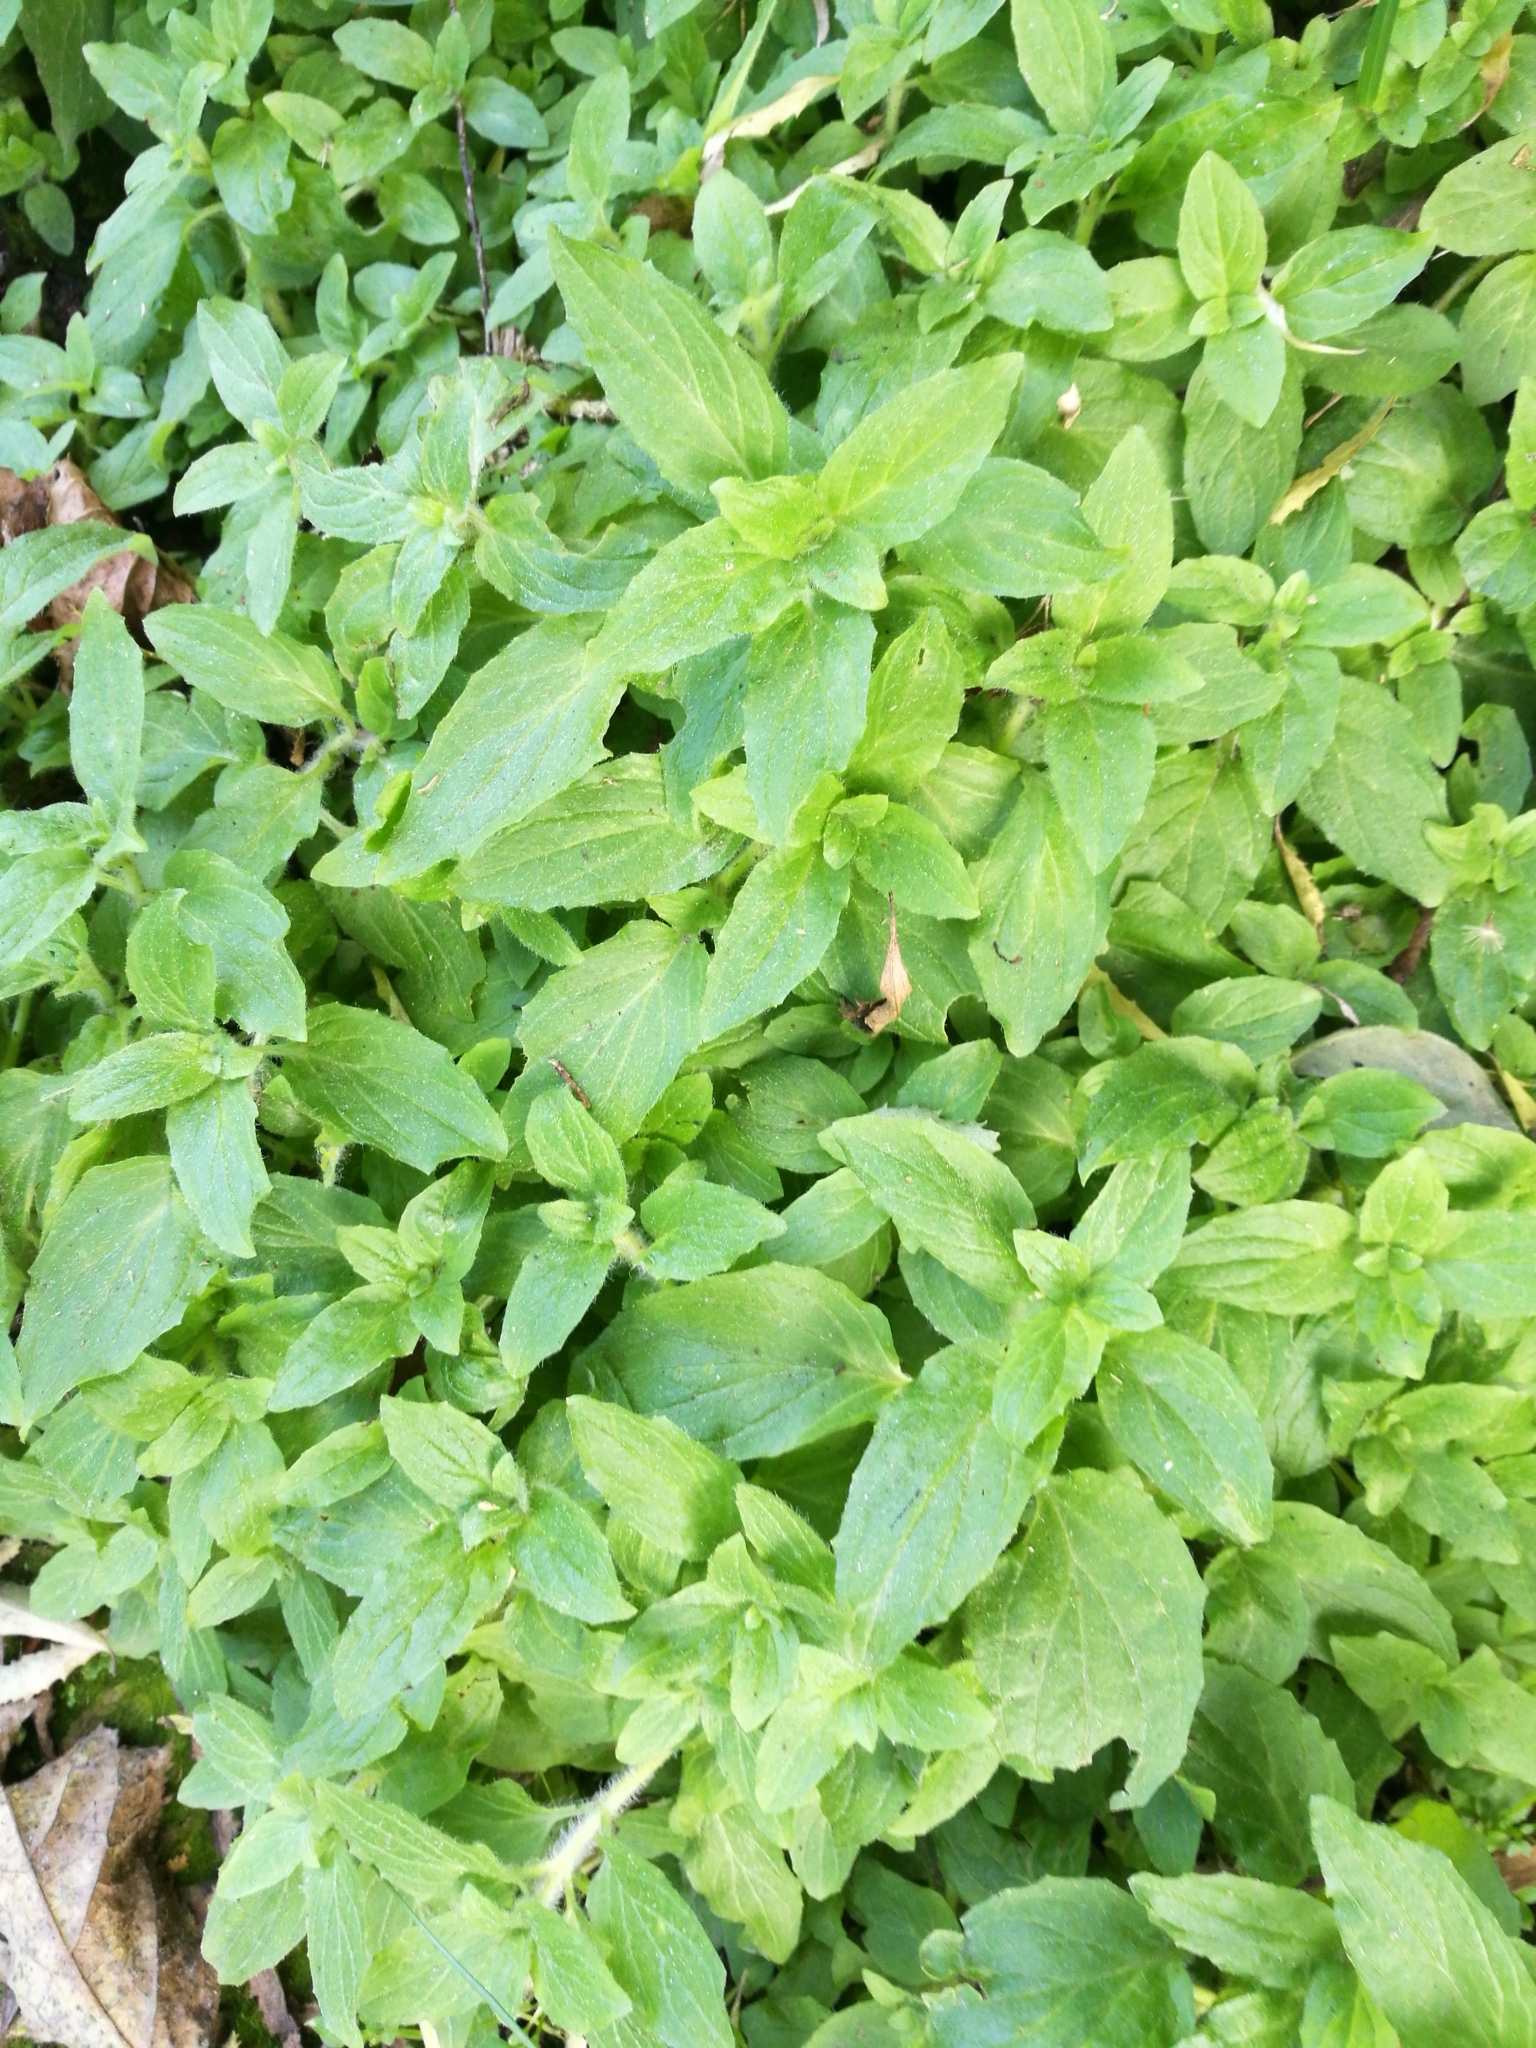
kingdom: Plantae
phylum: Tracheophyta
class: Magnoliopsida
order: Lamiales
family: Phrymaceae
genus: Erythranthe
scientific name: Erythranthe moschata
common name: Muskflower
